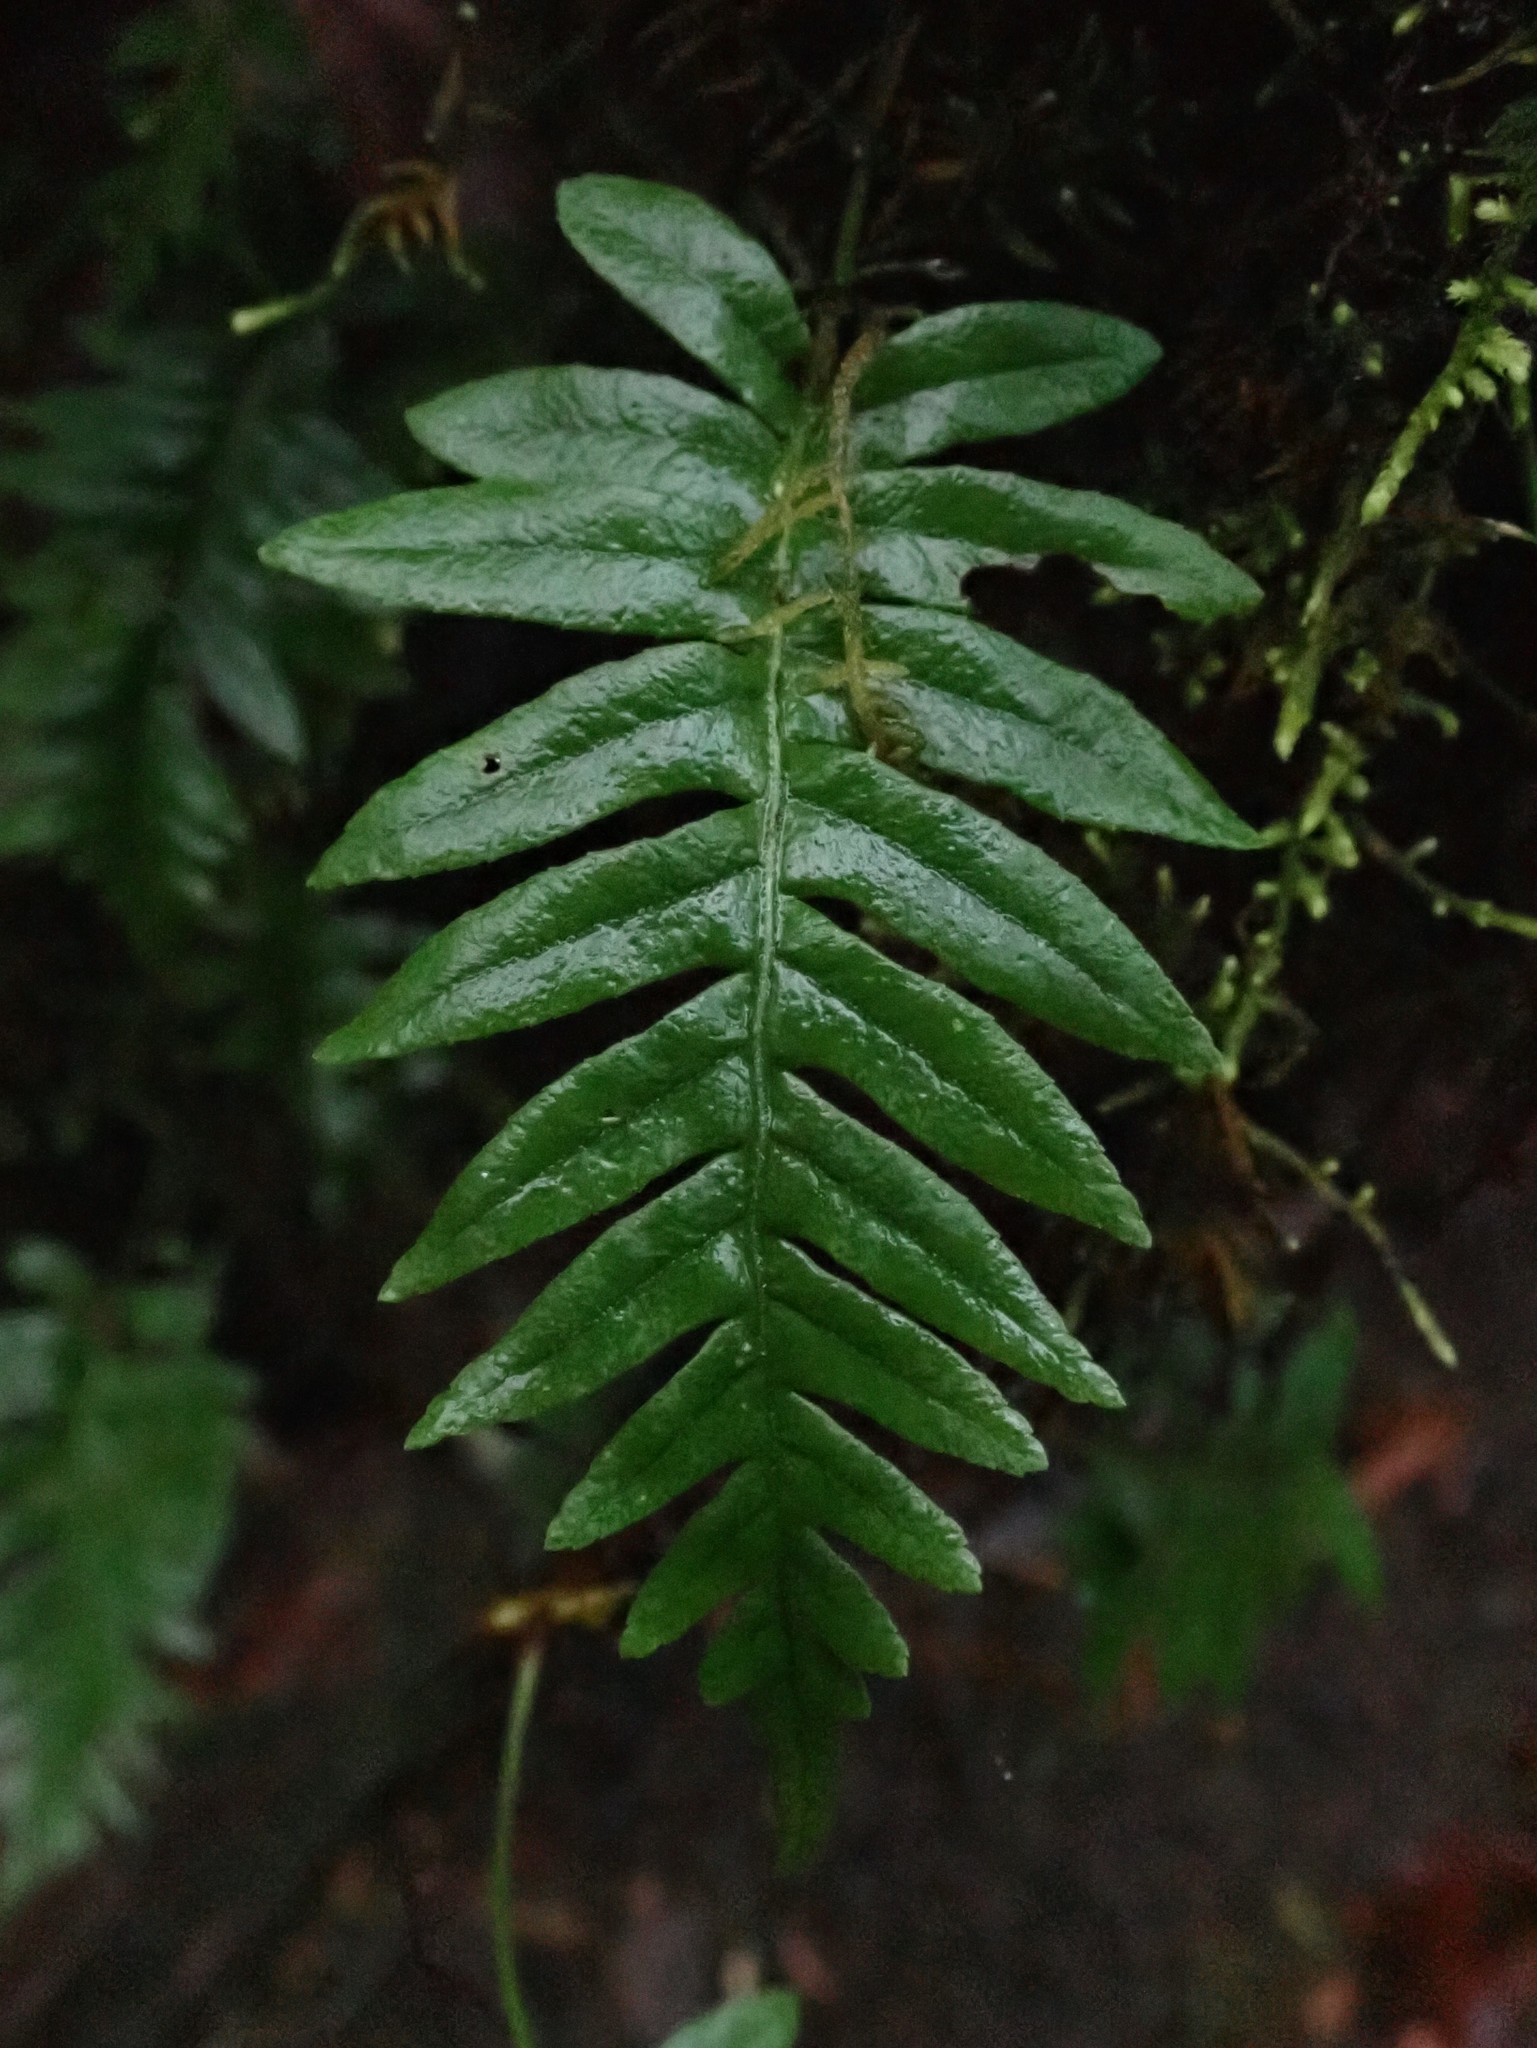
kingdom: Plantae
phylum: Tracheophyta
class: Polypodiopsida
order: Polypodiales
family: Polypodiaceae
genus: Polypodium
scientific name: Polypodium glycyrrhiza
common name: Licorice fern
